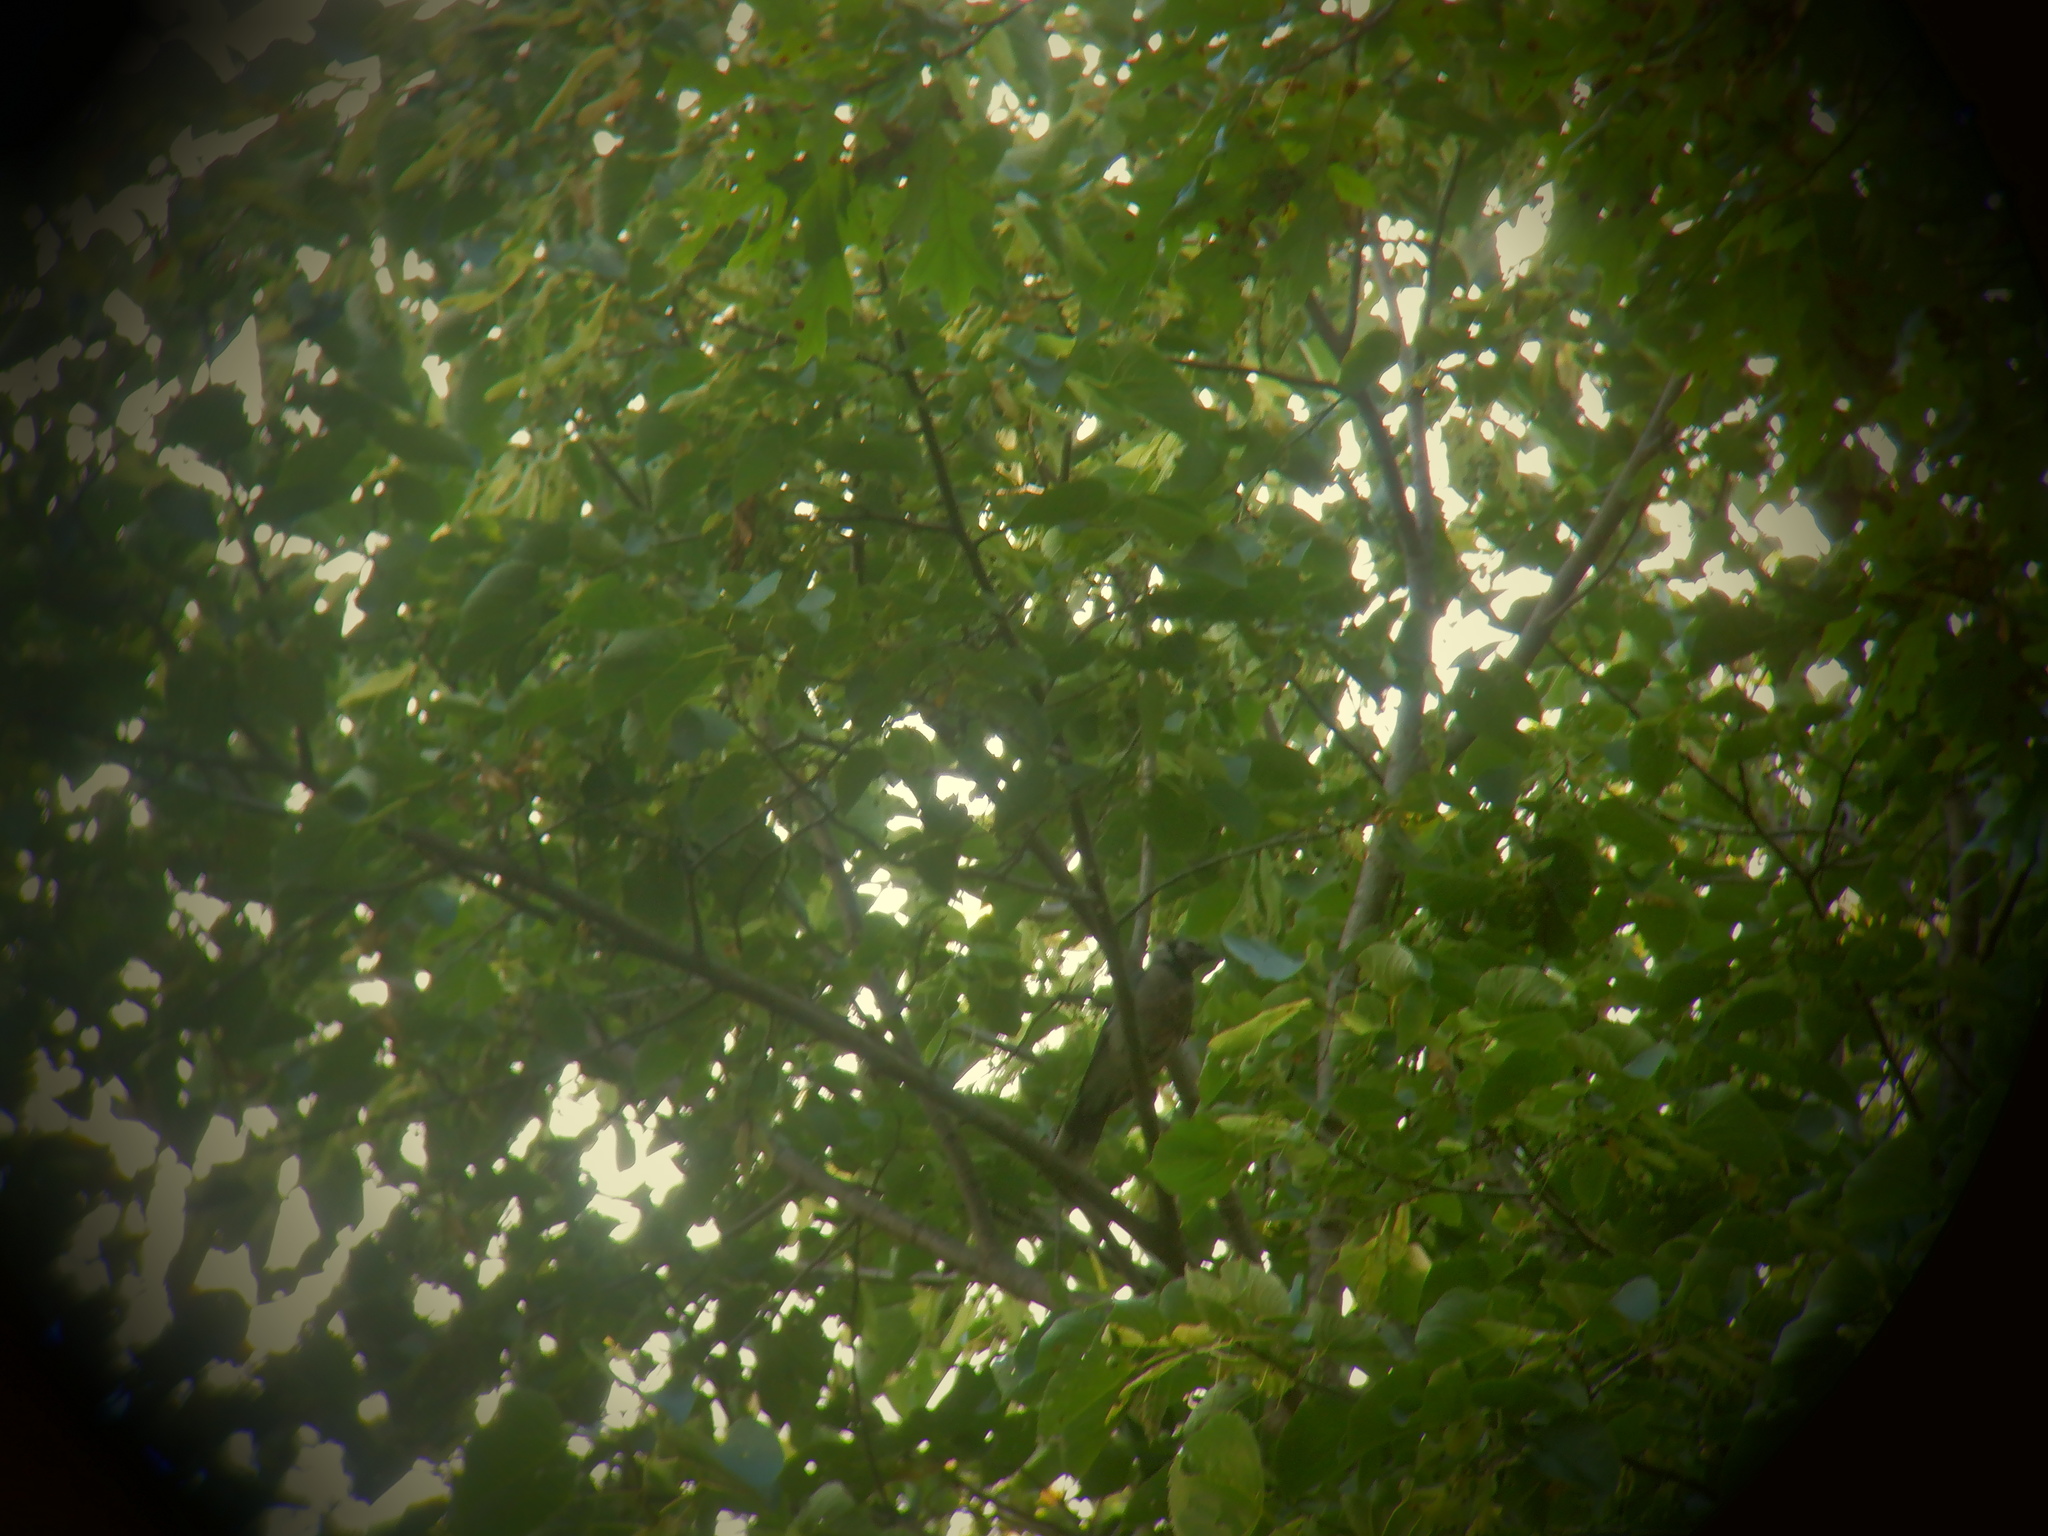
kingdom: Animalia
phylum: Chordata
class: Aves
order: Passeriformes
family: Corvidae
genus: Cyanocitta
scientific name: Cyanocitta cristata
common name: Blue jay
